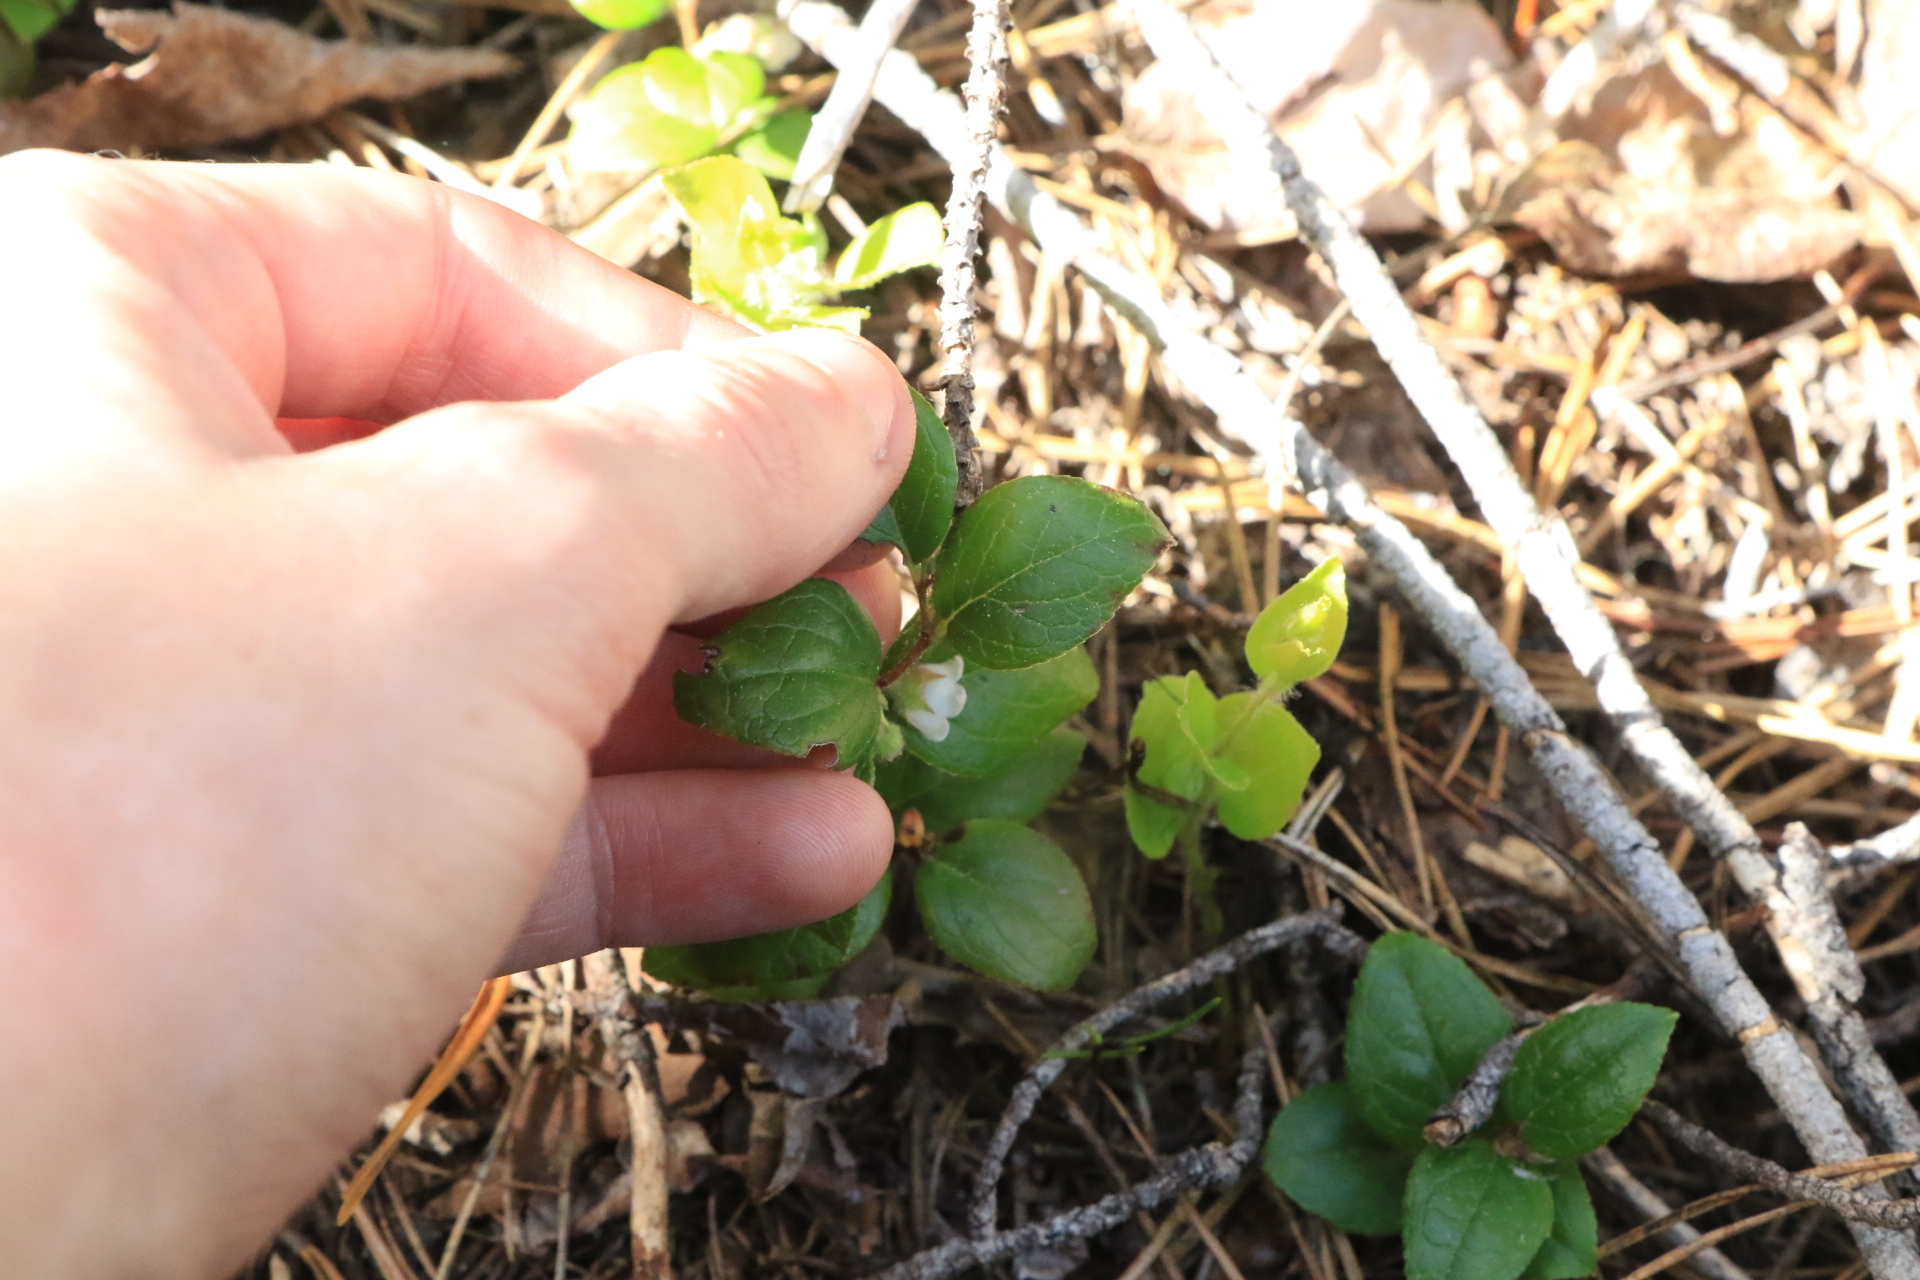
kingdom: Plantae
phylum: Tracheophyta
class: Magnoliopsida
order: Ericales
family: Ericaceae
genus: Gaultheria
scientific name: Gaultheria ovatifolia
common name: Oregon wintergreen
